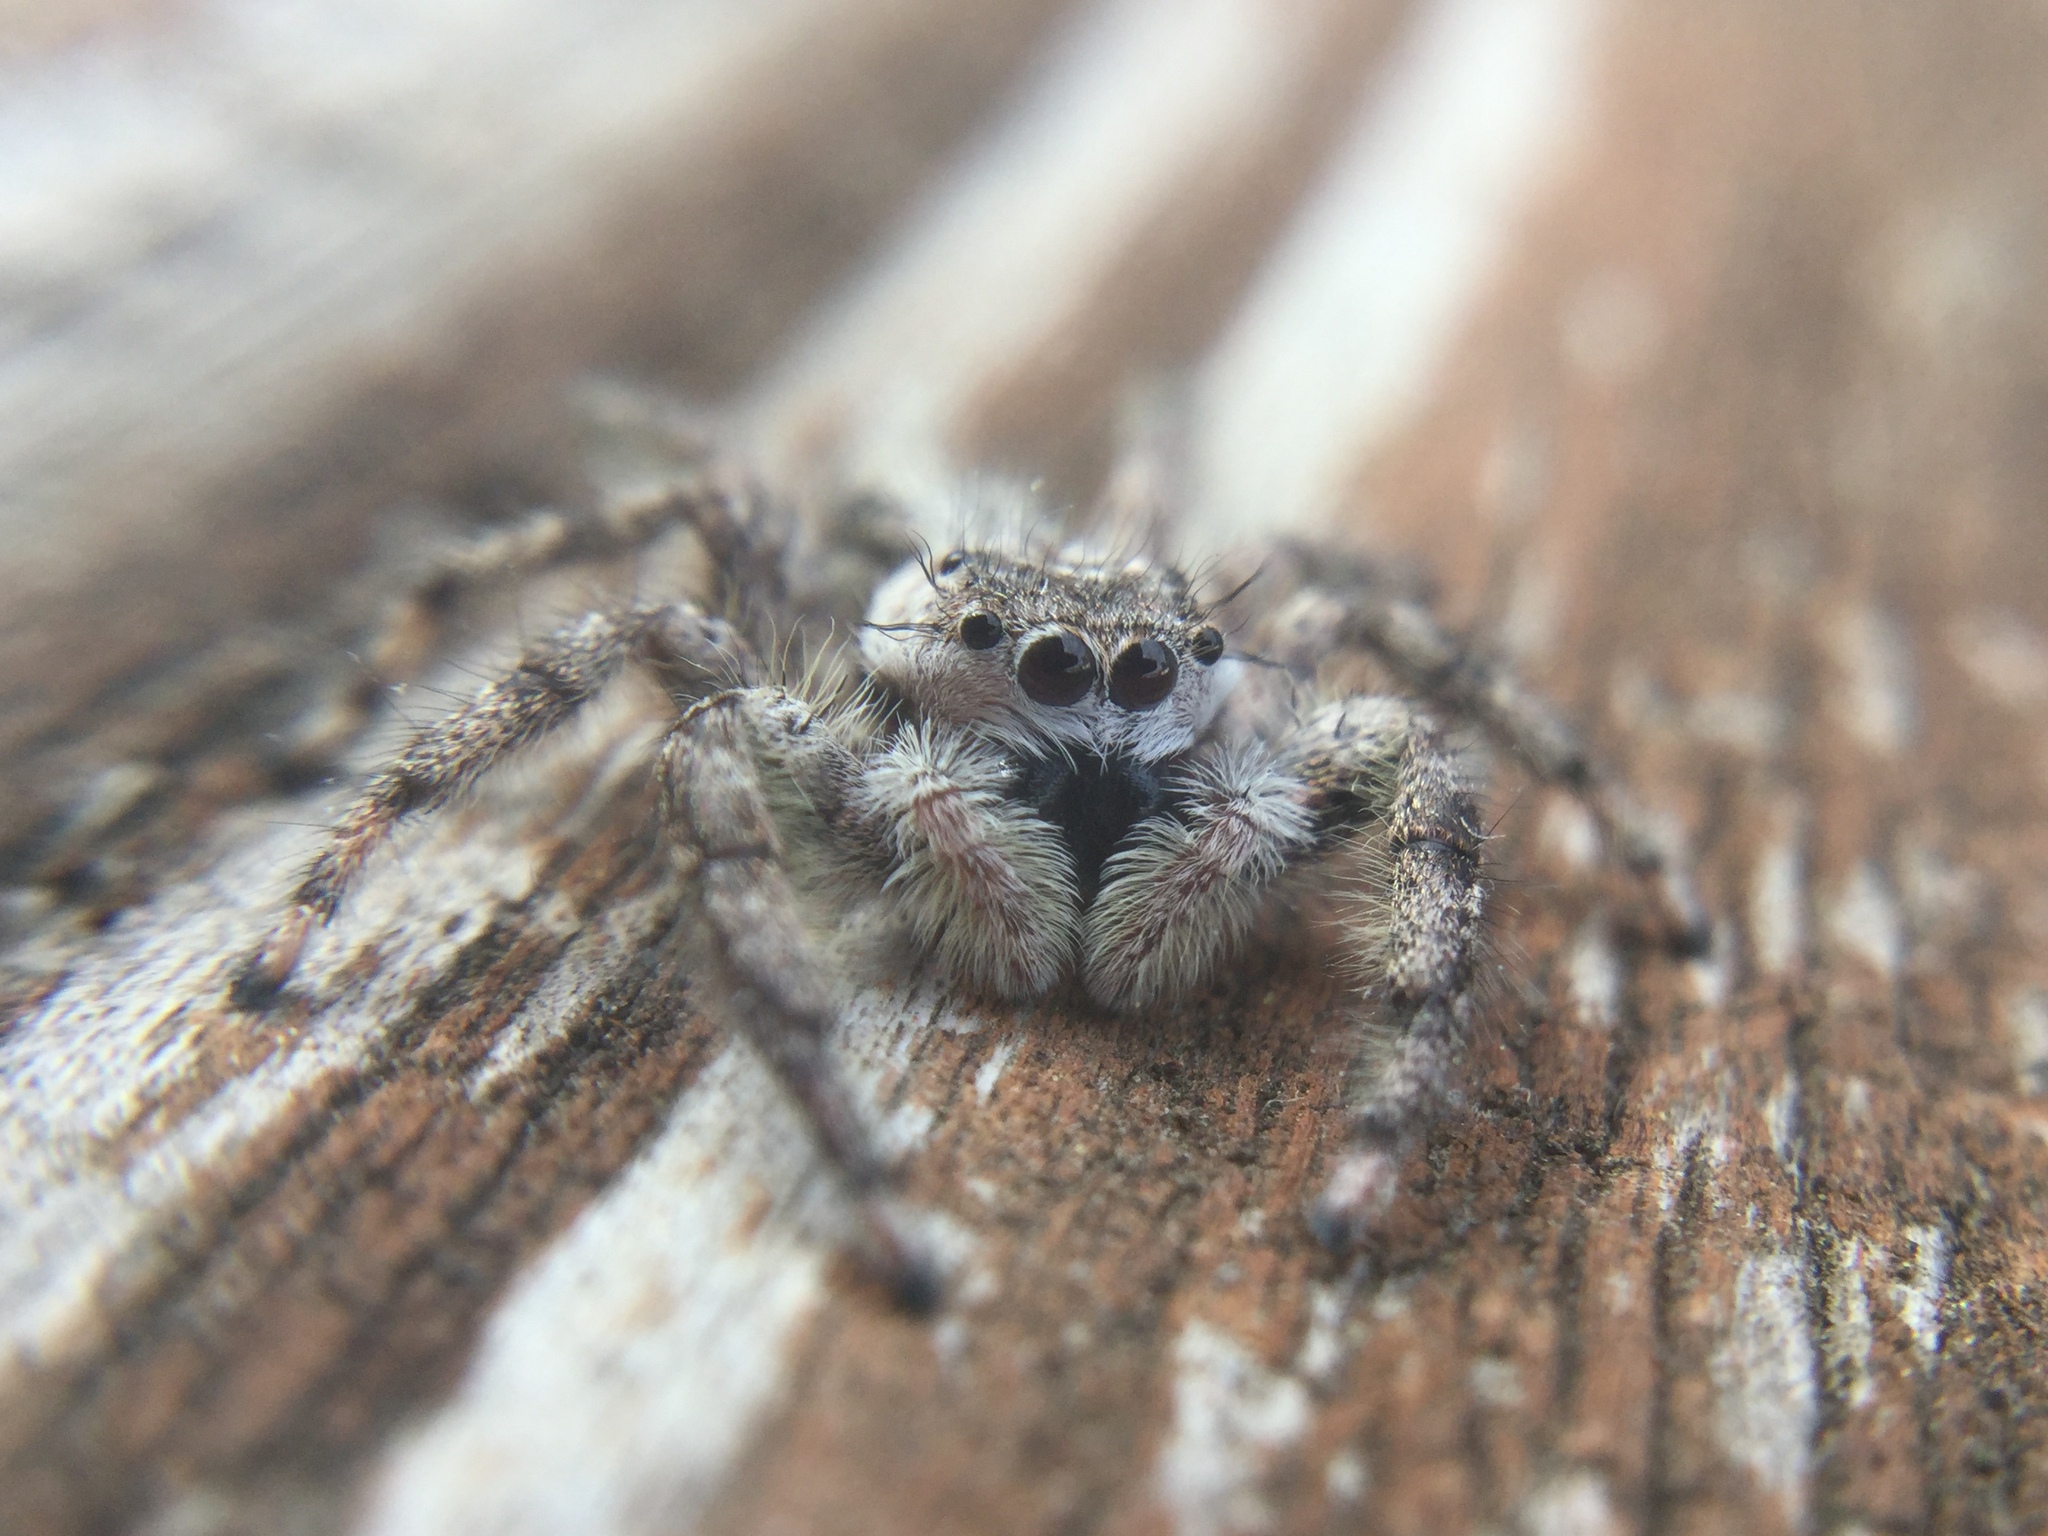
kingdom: Animalia
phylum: Arthropoda
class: Arachnida
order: Araneae
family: Salticidae
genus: Platycryptus
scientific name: Platycryptus undatus
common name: Tan jumping spider
